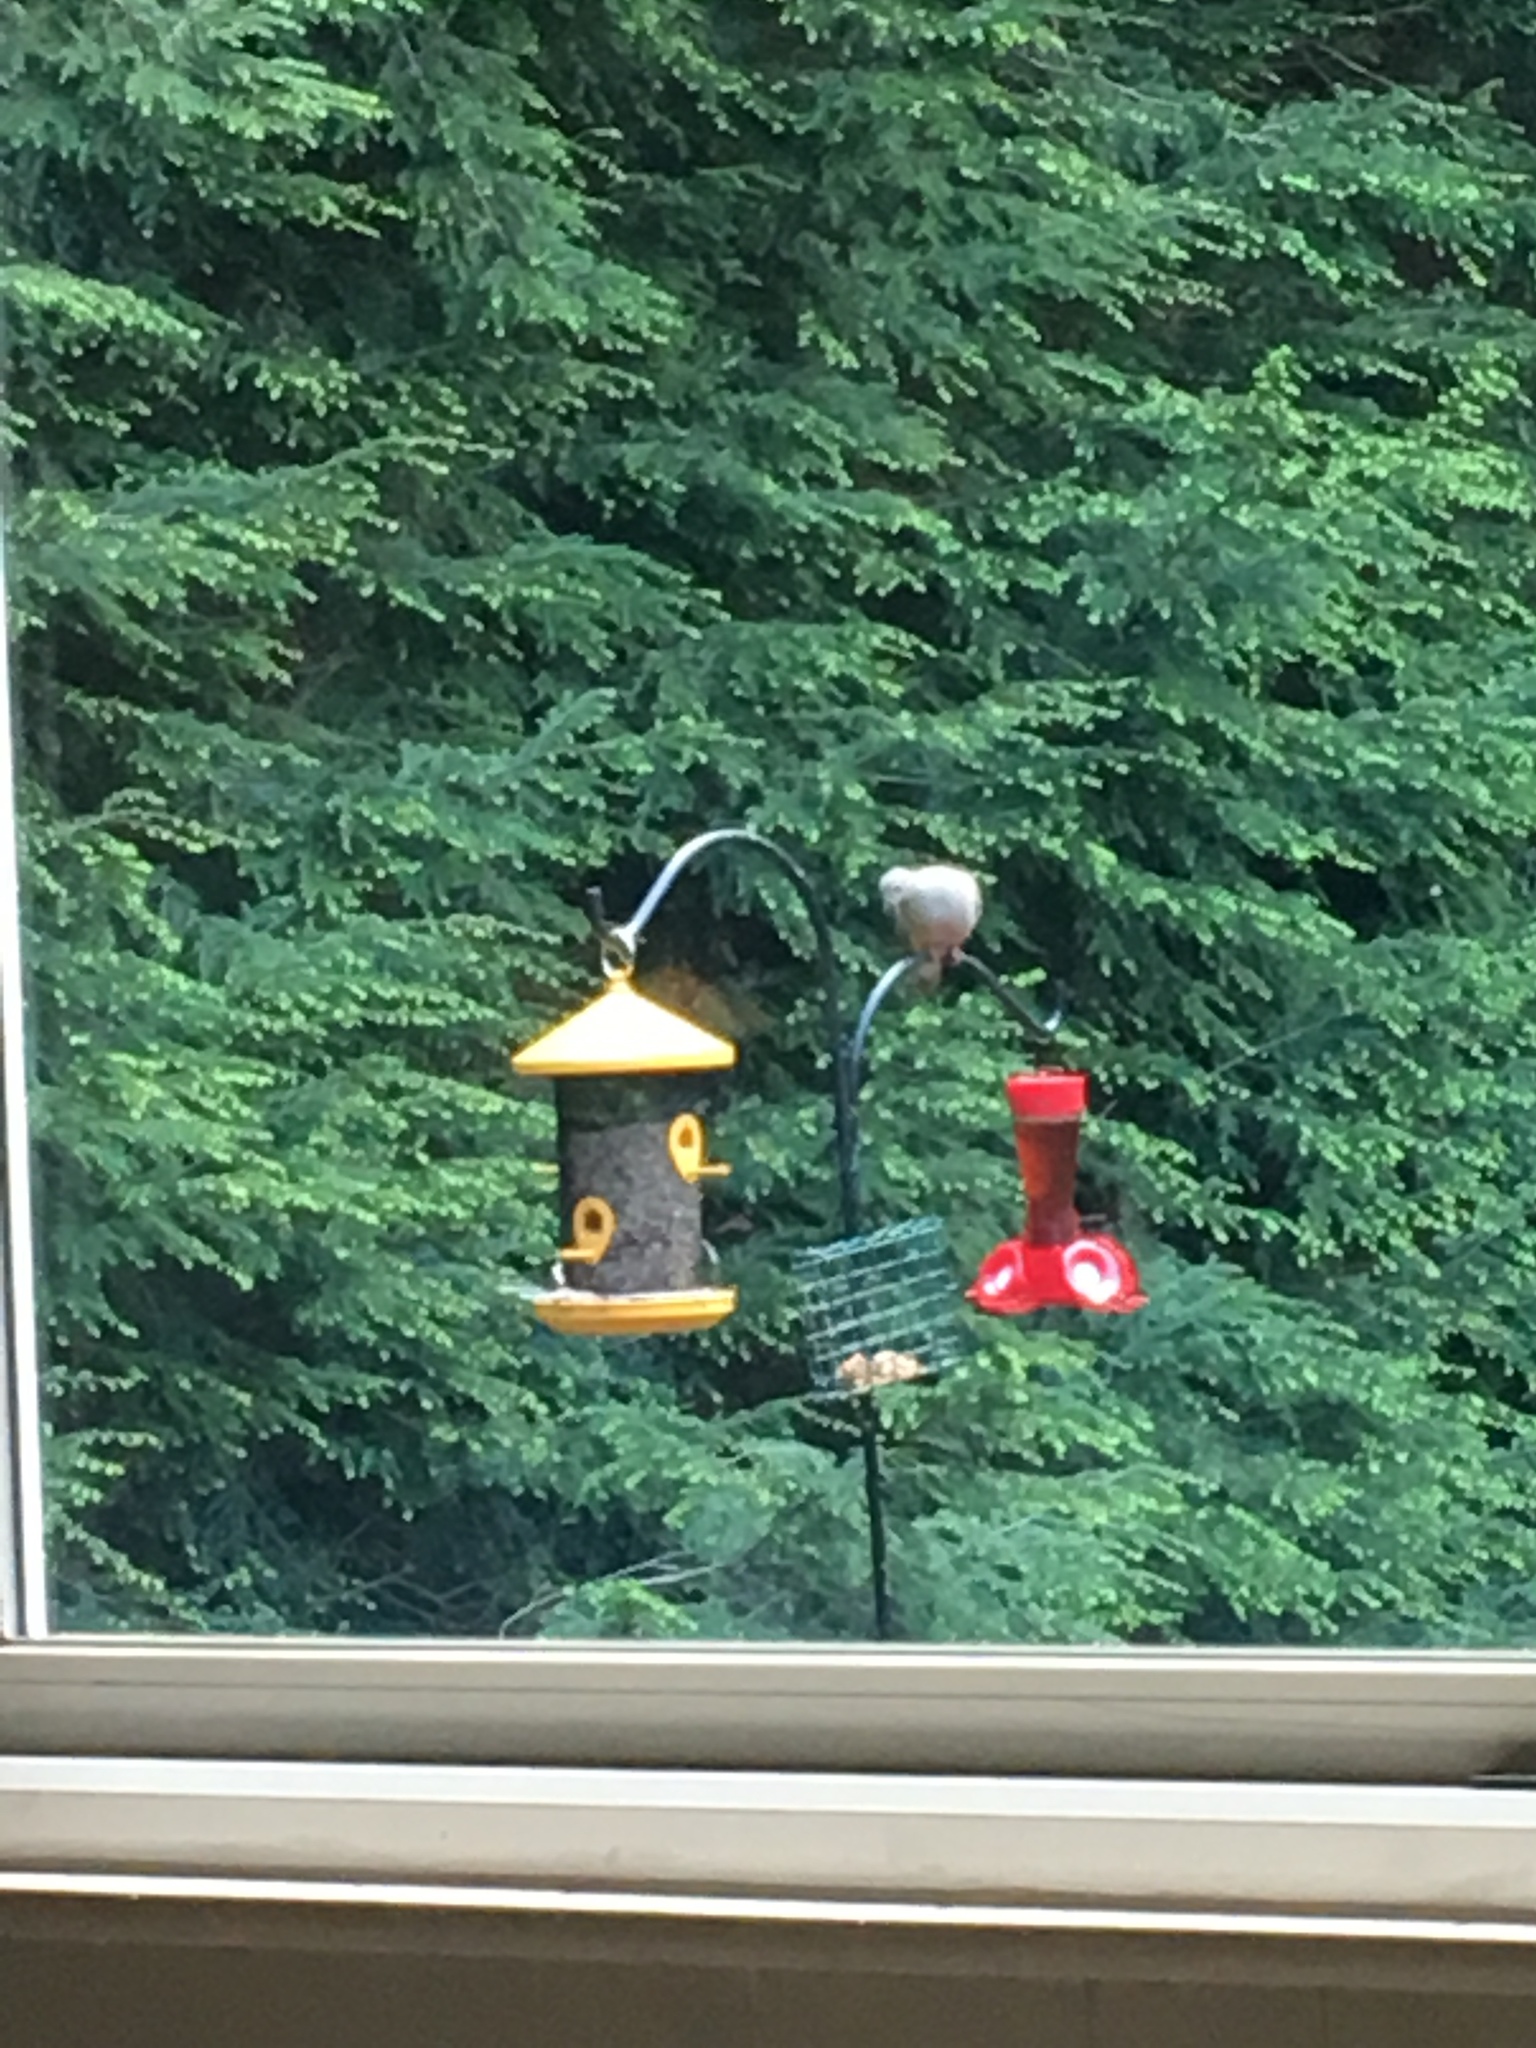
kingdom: Animalia
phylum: Chordata
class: Aves
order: Columbiformes
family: Columbidae
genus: Zenaida
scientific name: Zenaida macroura
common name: Mourning dove
